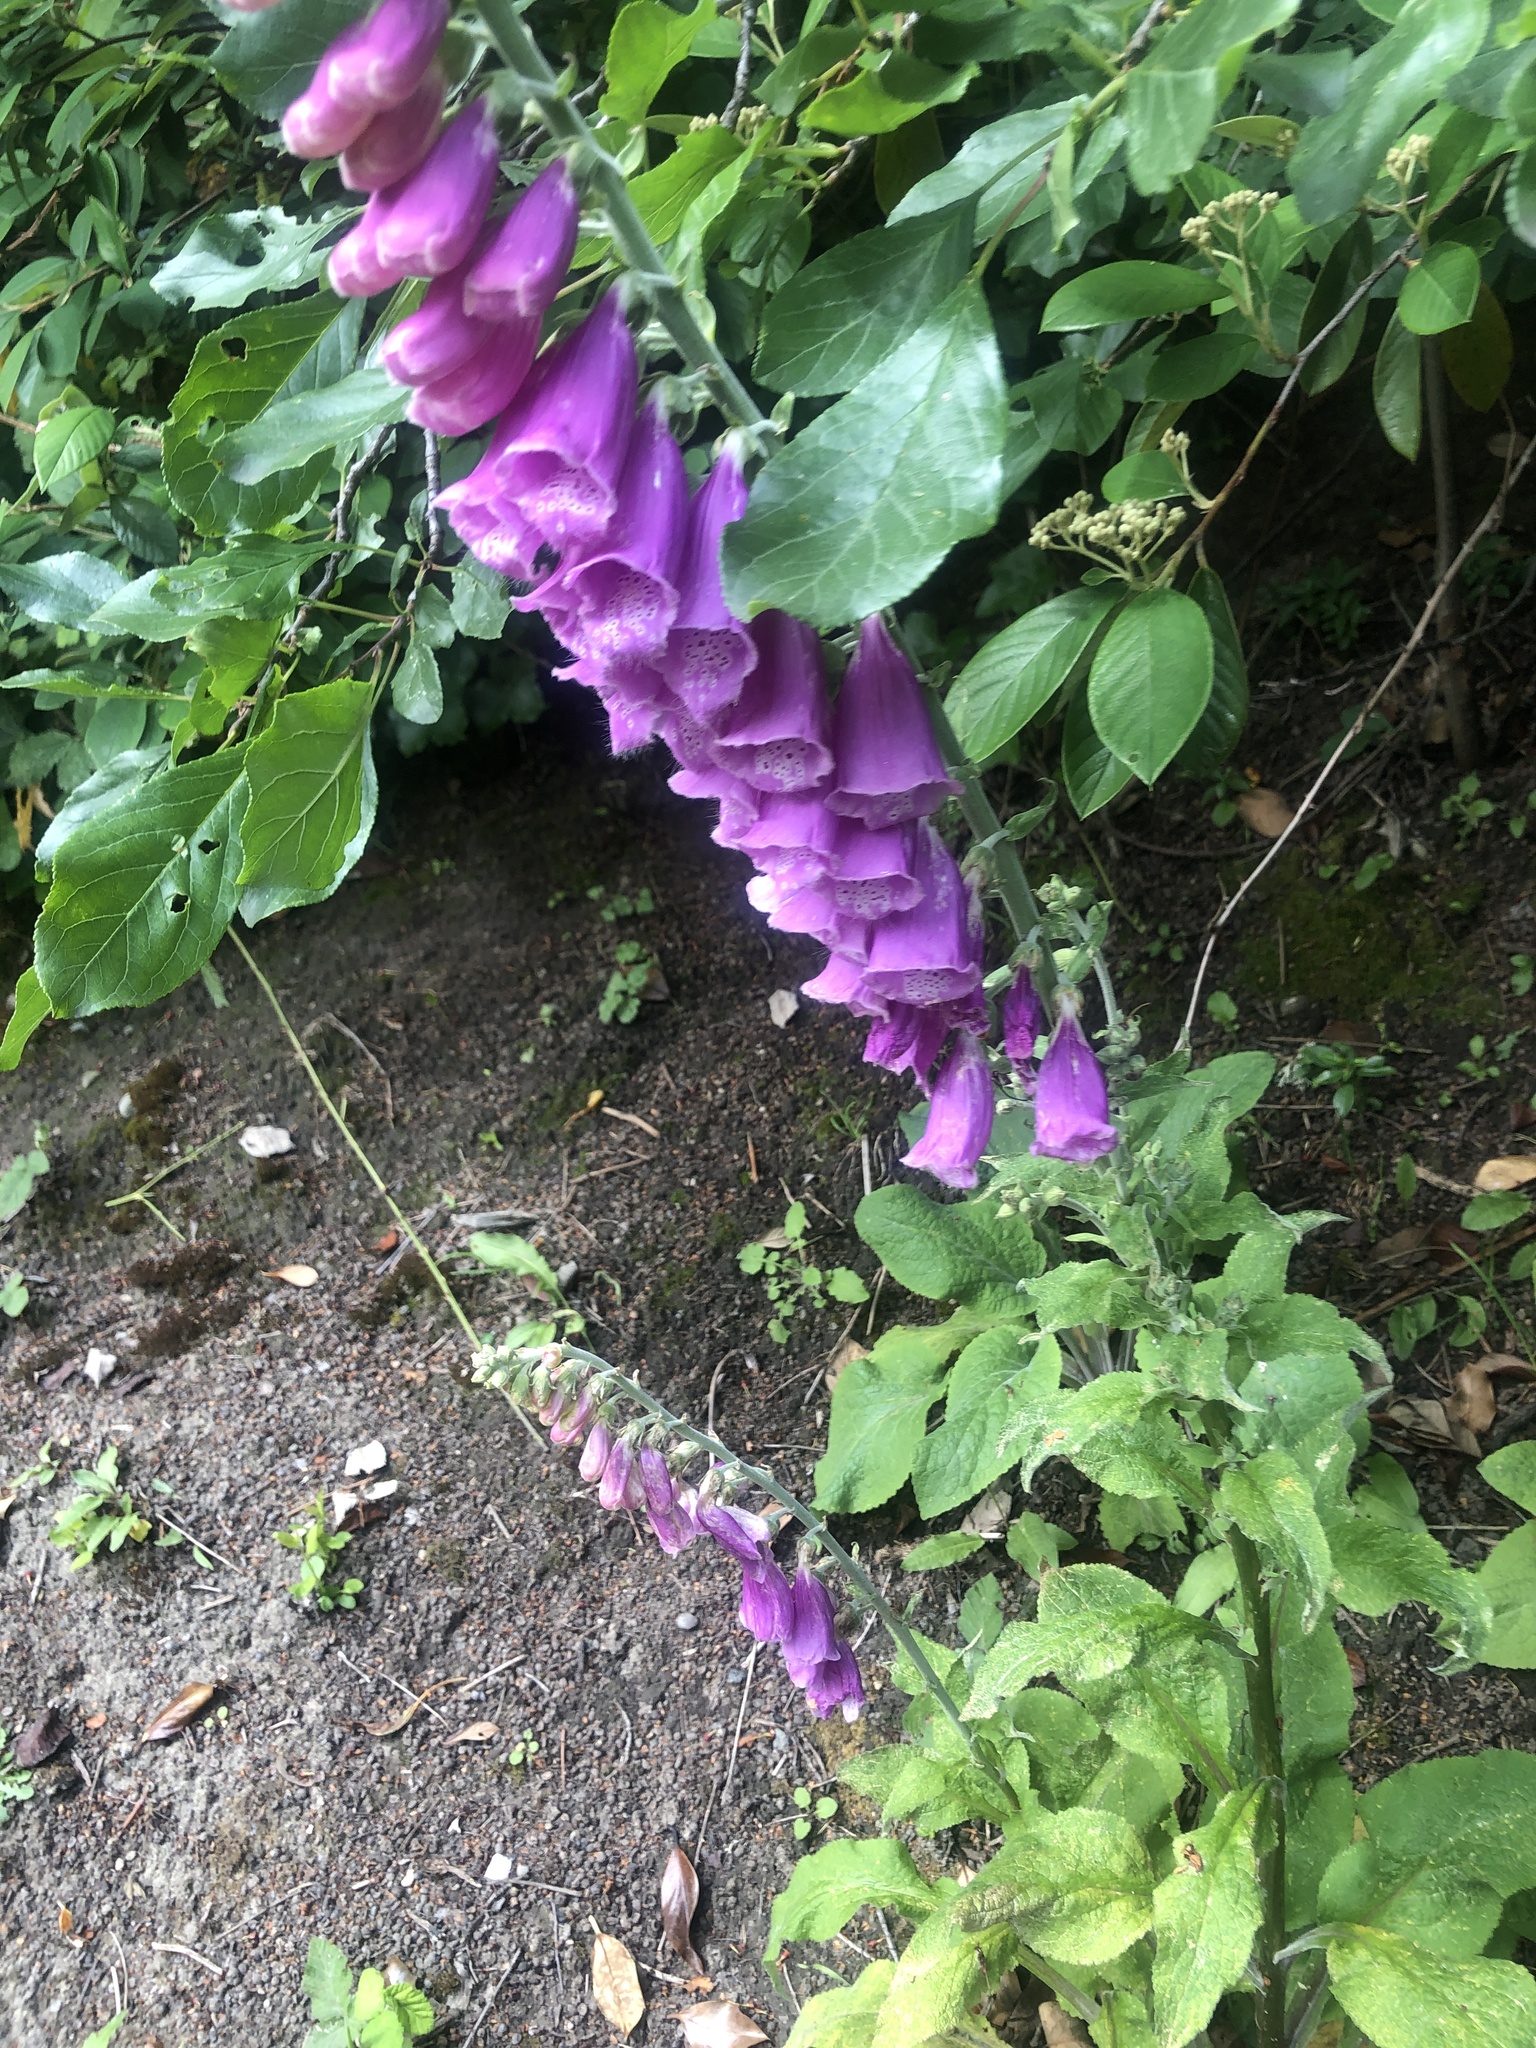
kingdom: Plantae
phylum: Tracheophyta
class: Magnoliopsida
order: Lamiales
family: Plantaginaceae
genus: Digitalis
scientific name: Digitalis purpurea
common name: Foxglove
